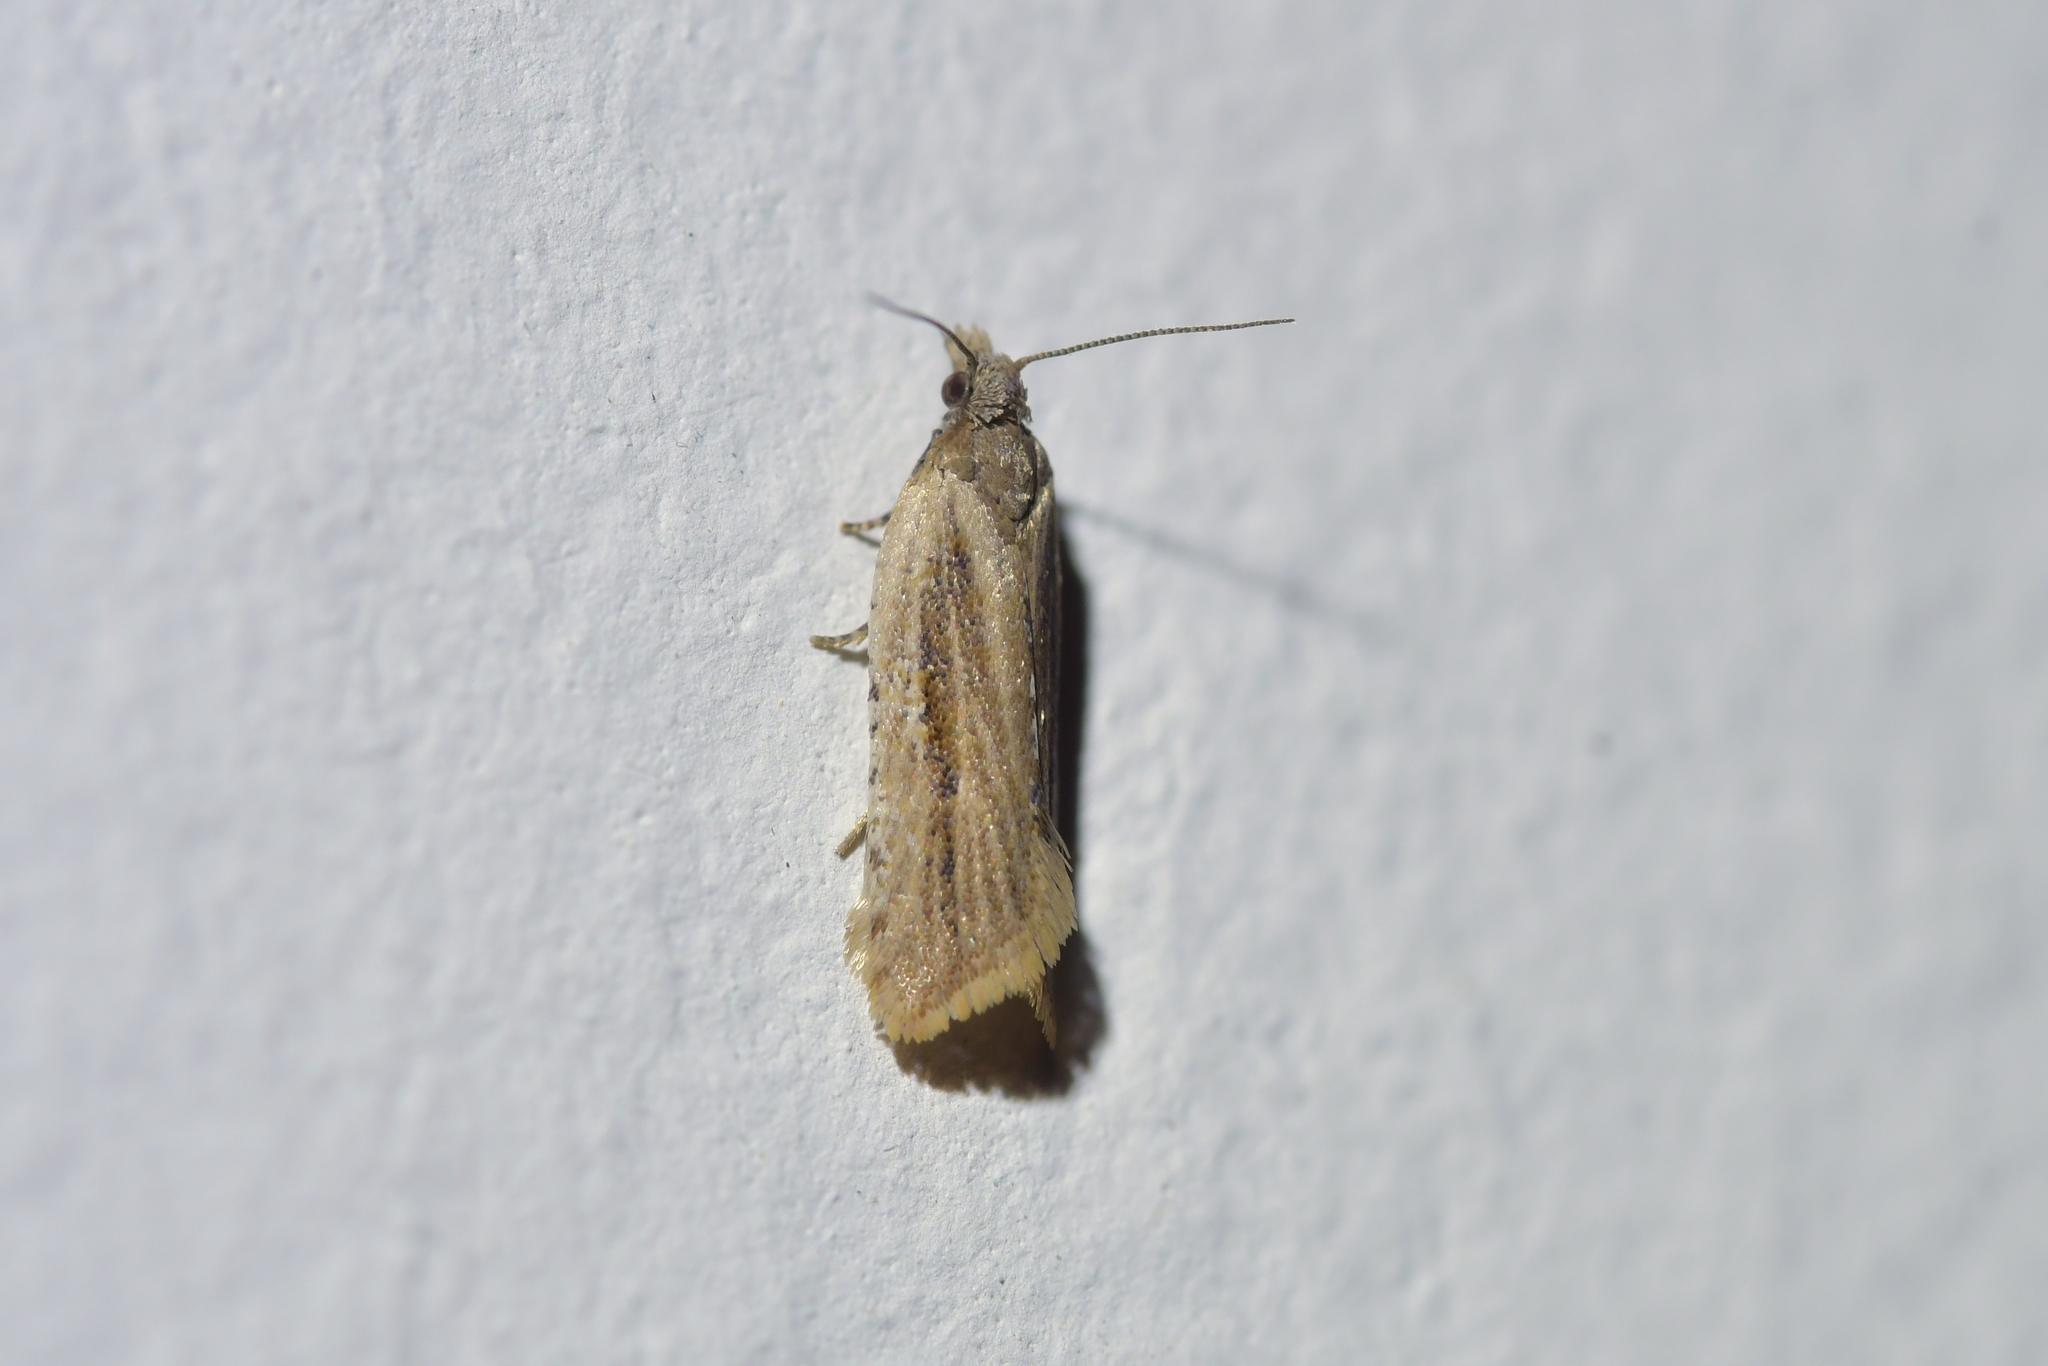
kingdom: Animalia
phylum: Arthropoda
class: Insecta
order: Lepidoptera
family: Tortricidae
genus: Capua
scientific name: Capua semiferana
